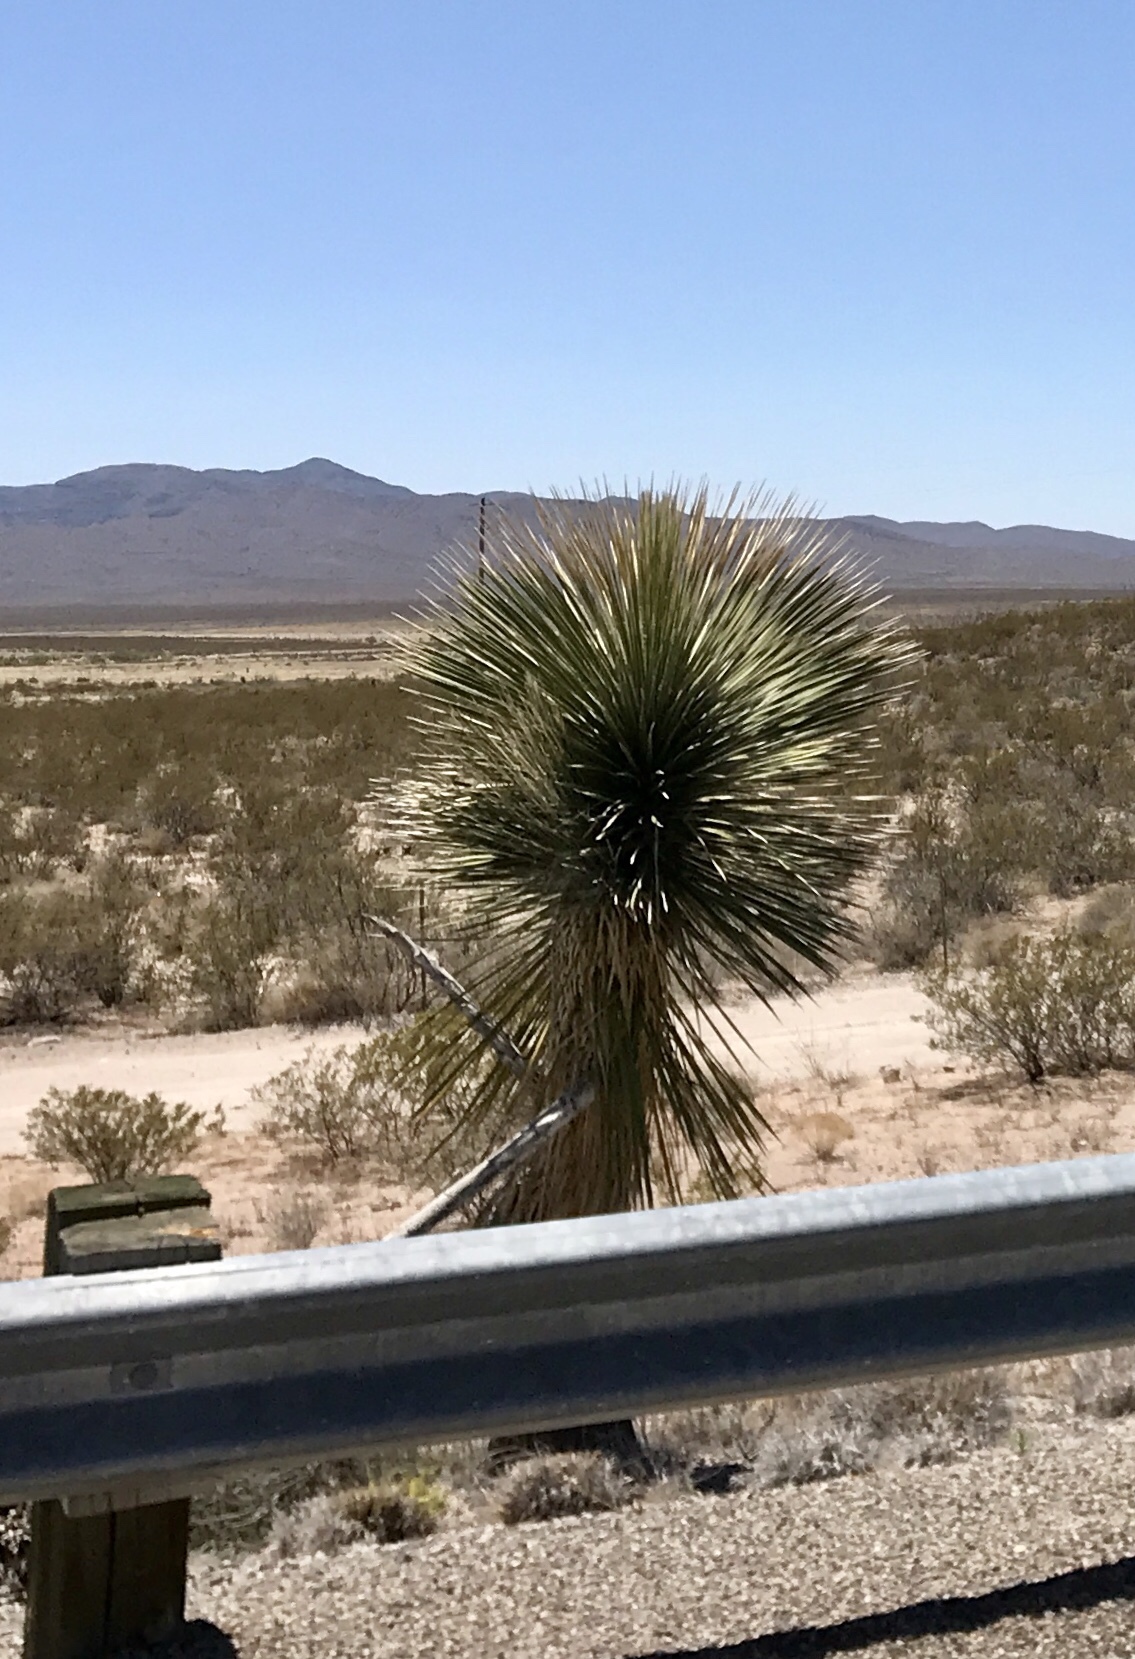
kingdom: Plantae
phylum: Tracheophyta
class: Liliopsida
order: Asparagales
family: Asparagaceae
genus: Yucca
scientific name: Yucca elata
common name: Palmella
